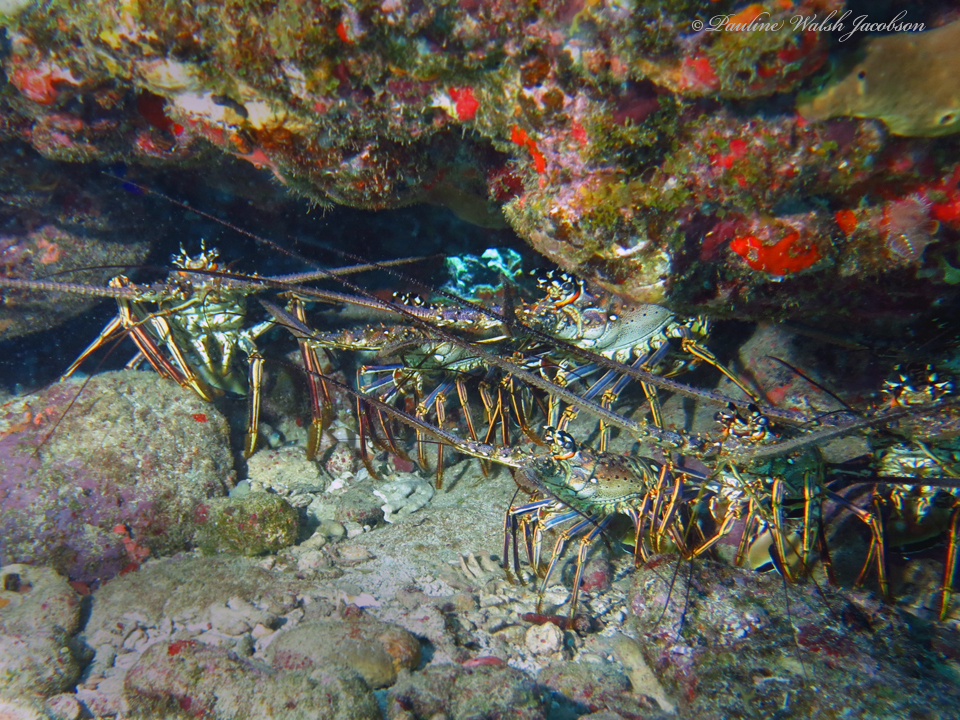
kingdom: Animalia
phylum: Arthropoda
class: Malacostraca
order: Decapoda
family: Palinuridae
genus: Panulirus
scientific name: Panulirus argus
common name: Caribbean spiny lobster
